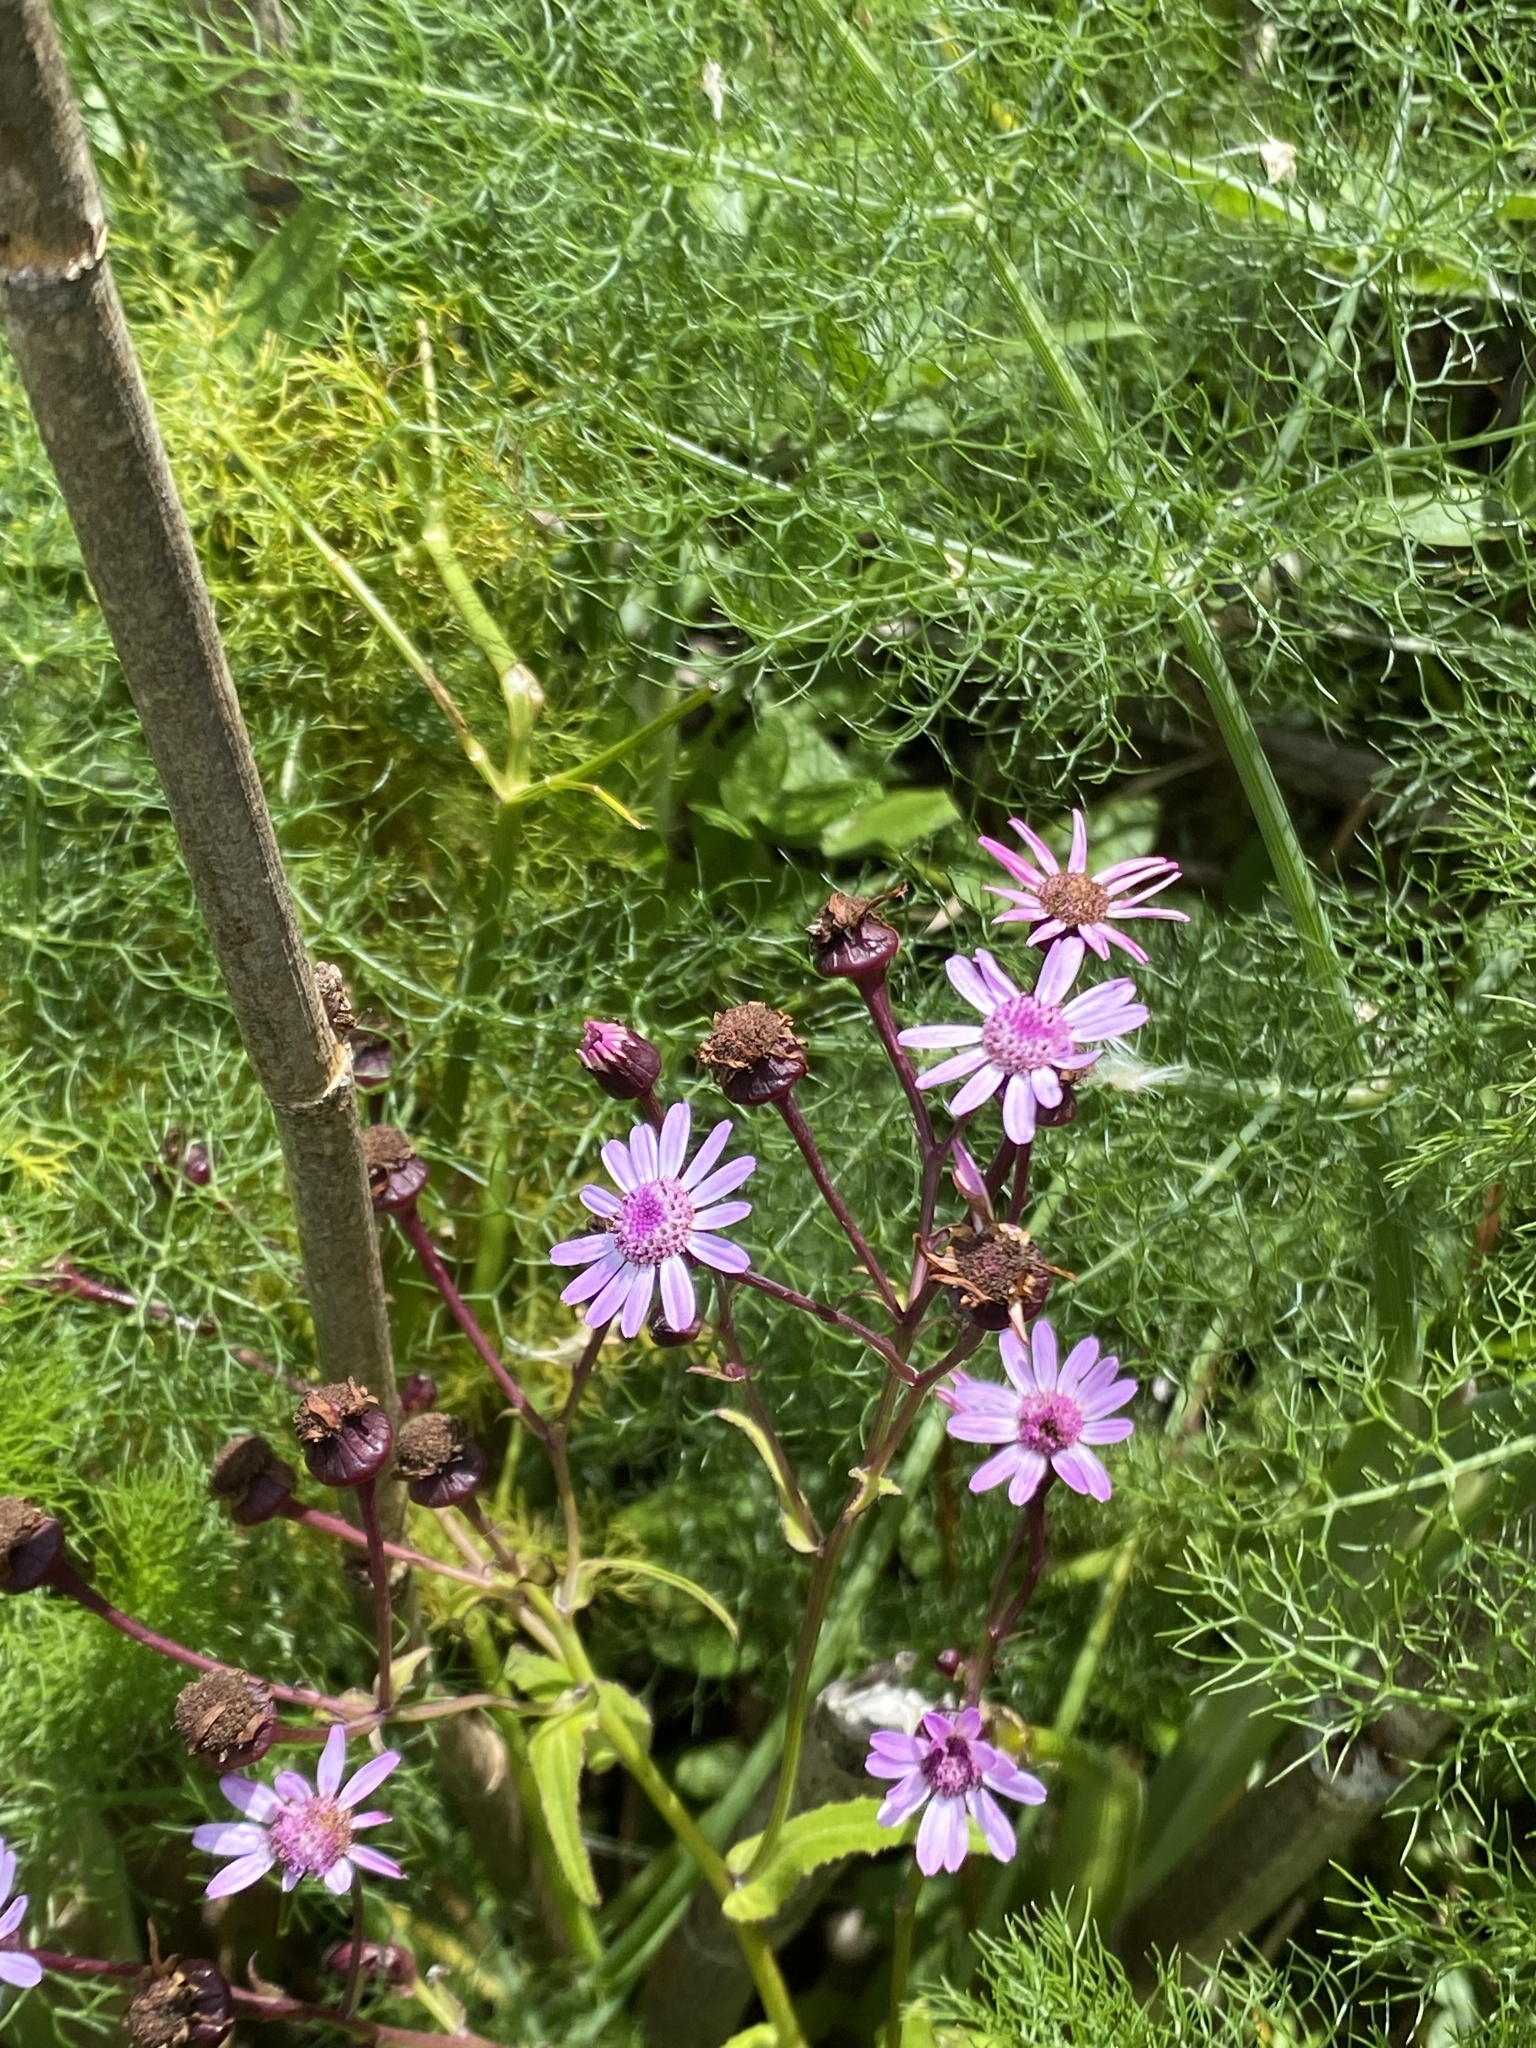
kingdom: Plantae
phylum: Tracheophyta
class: Magnoliopsida
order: Asterales
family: Asteraceae
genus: Pericallis
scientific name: Pericallis tussilaginis
